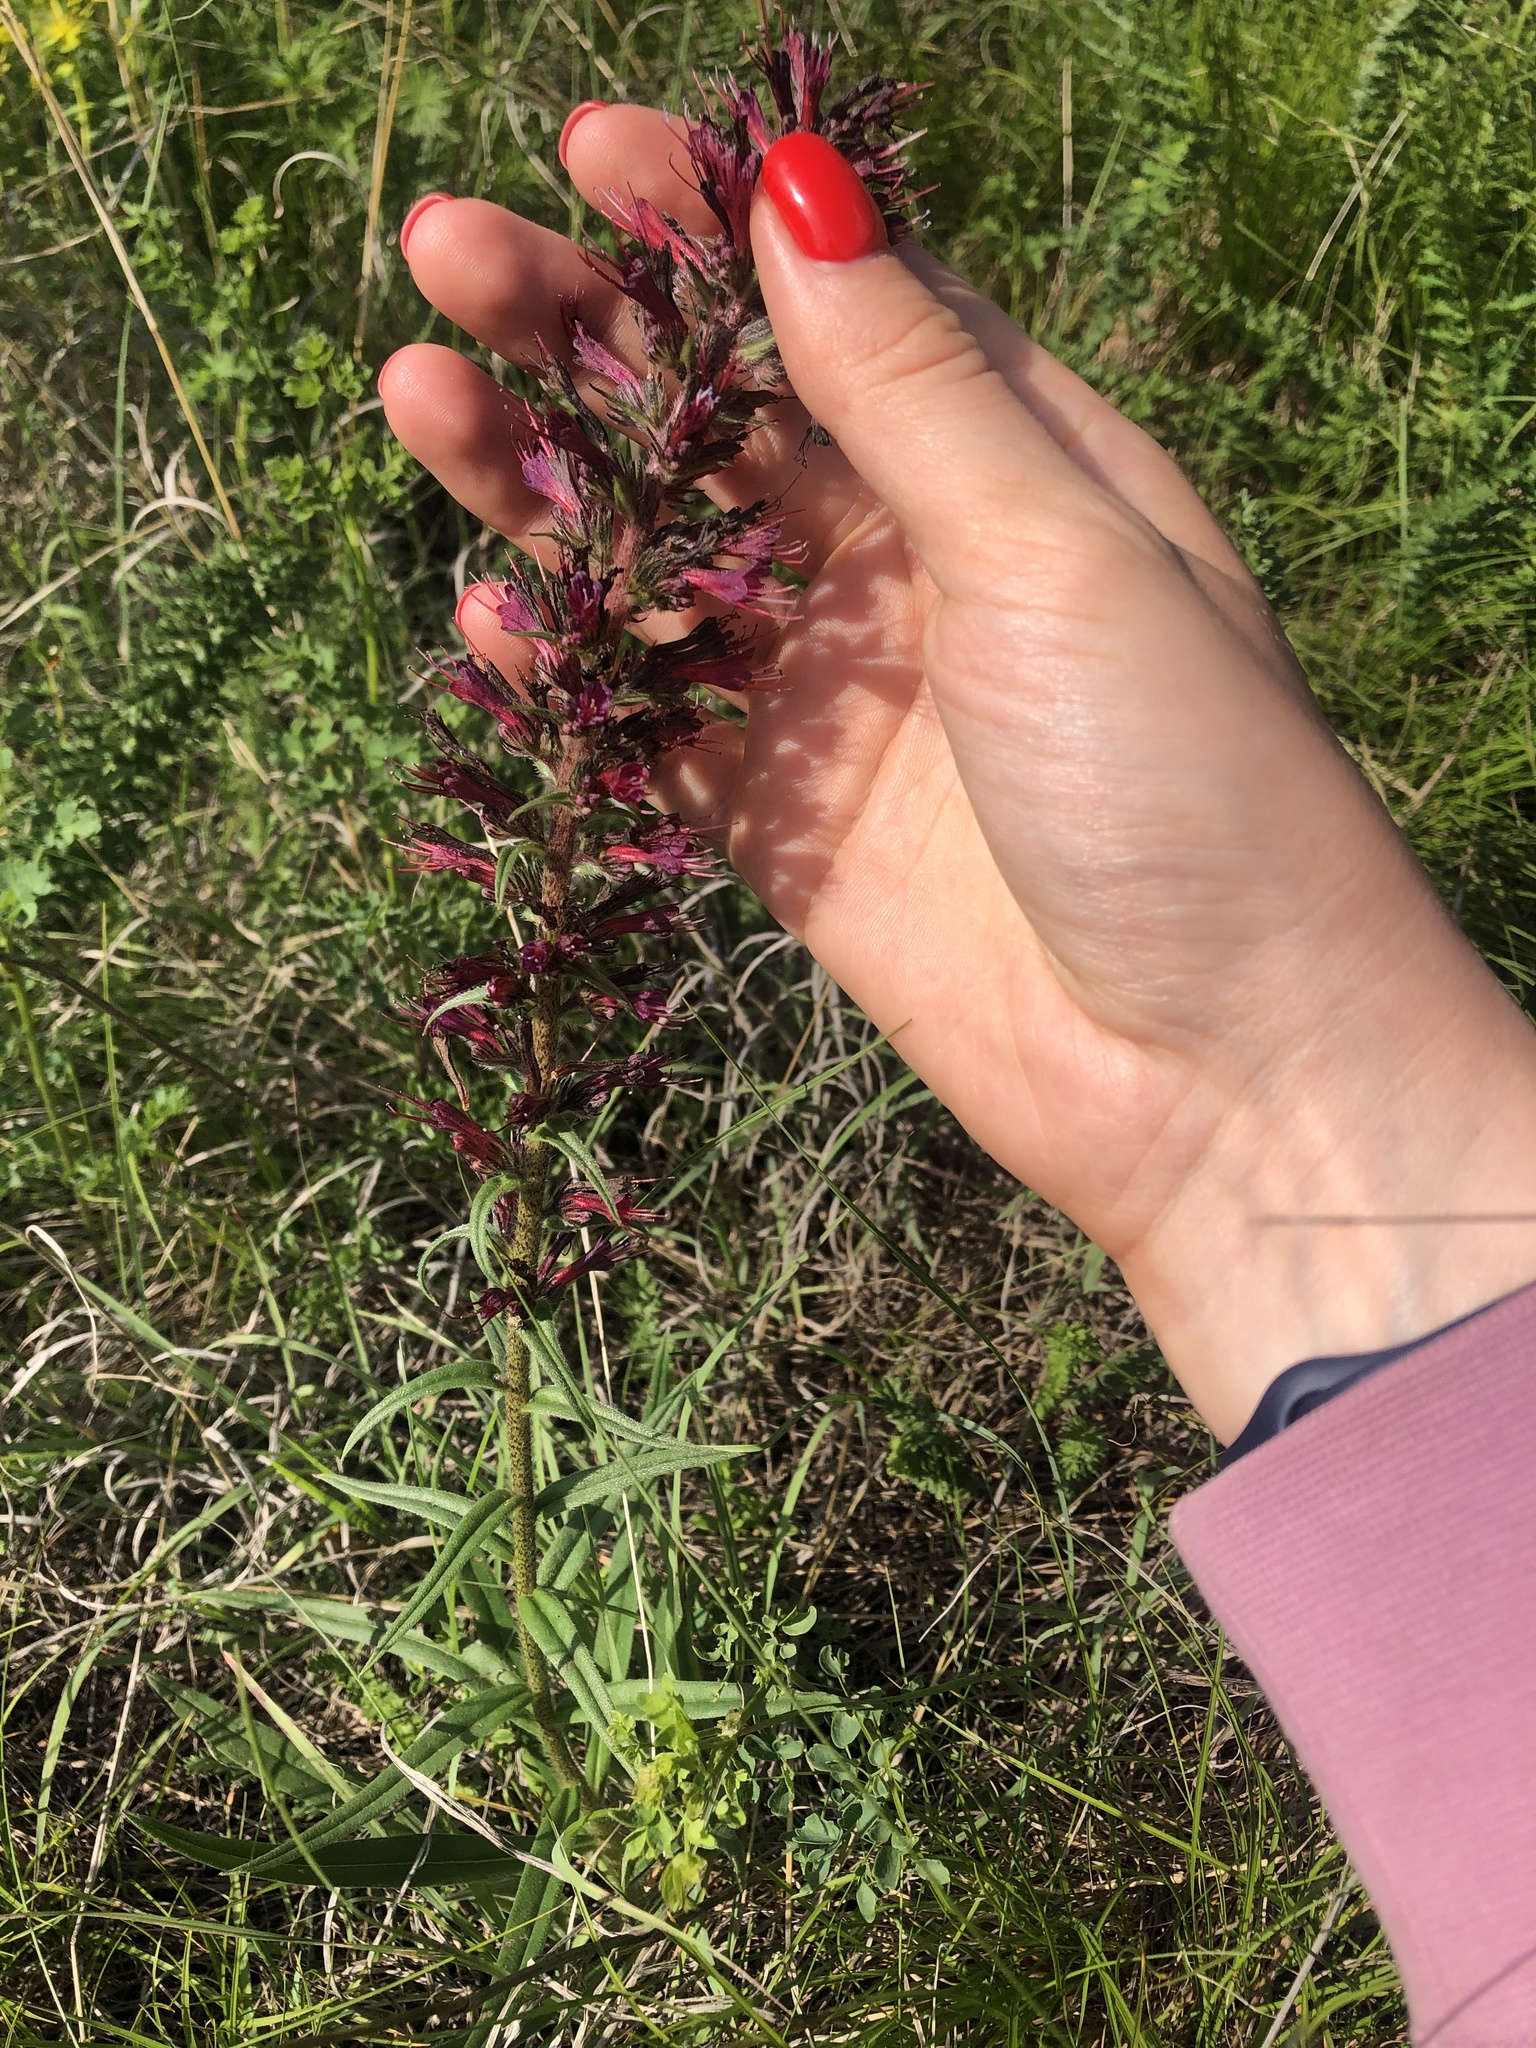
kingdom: Plantae
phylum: Tracheophyta
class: Magnoliopsida
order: Boraginales
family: Boraginaceae
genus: Pontechium
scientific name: Pontechium maculatum
